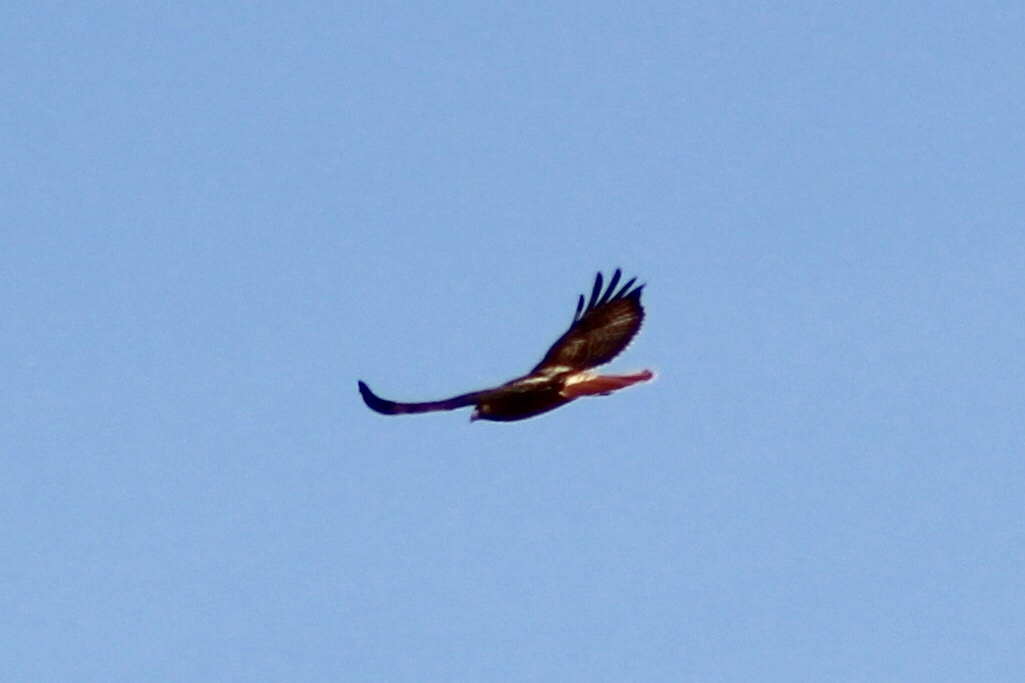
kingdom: Animalia
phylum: Chordata
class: Aves
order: Accipitriformes
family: Accipitridae
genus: Buteo
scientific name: Buteo jamaicensis
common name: Red-tailed hawk
